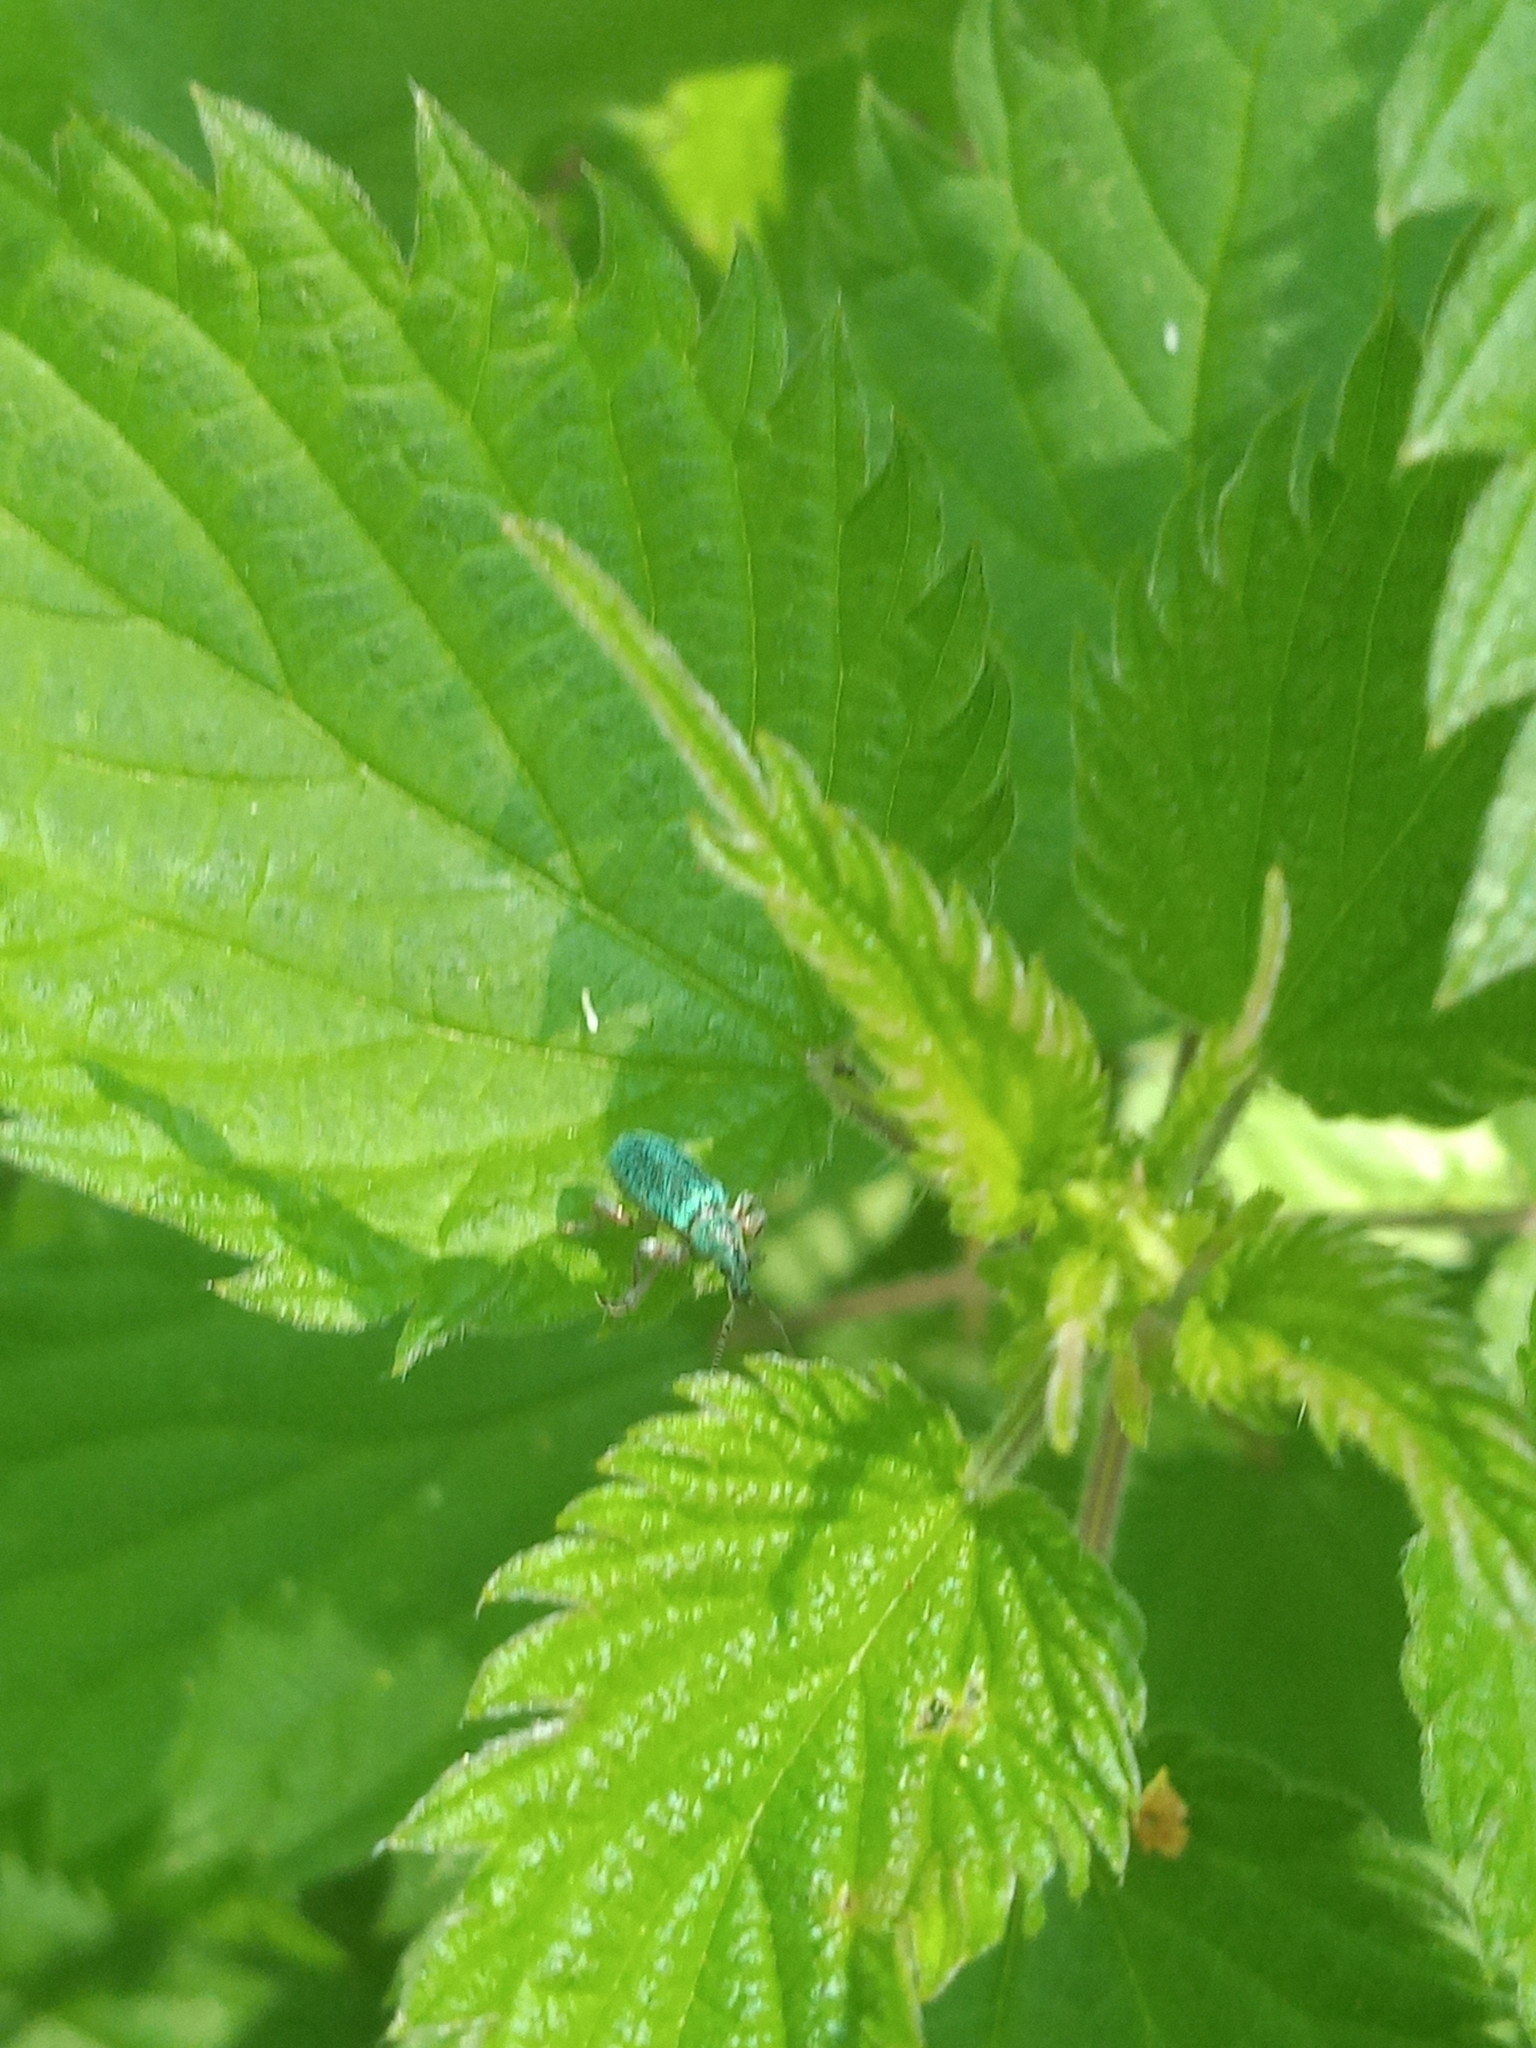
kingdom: Animalia
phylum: Arthropoda
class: Insecta
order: Coleoptera
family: Curculionidae
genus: Phyllobius
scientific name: Phyllobius pomaceus
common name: Green nettle weevil
